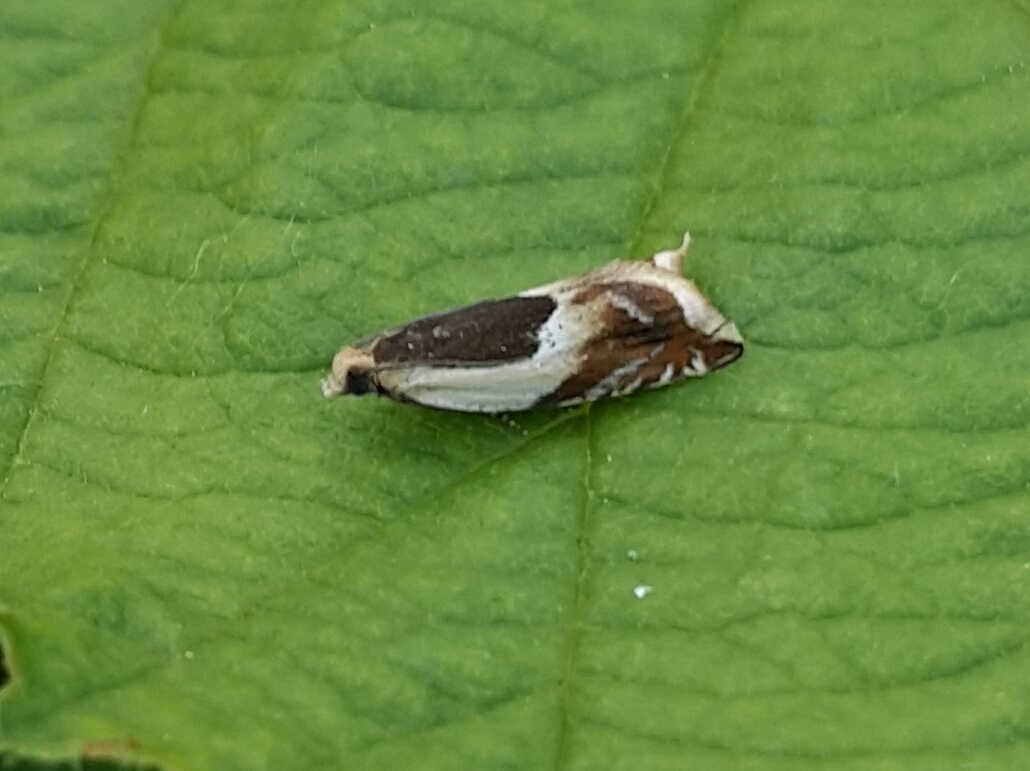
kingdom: Animalia
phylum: Arthropoda
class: Insecta
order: Lepidoptera
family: Tortricidae
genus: Ancylis
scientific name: Ancylis badiana
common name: Common roller
